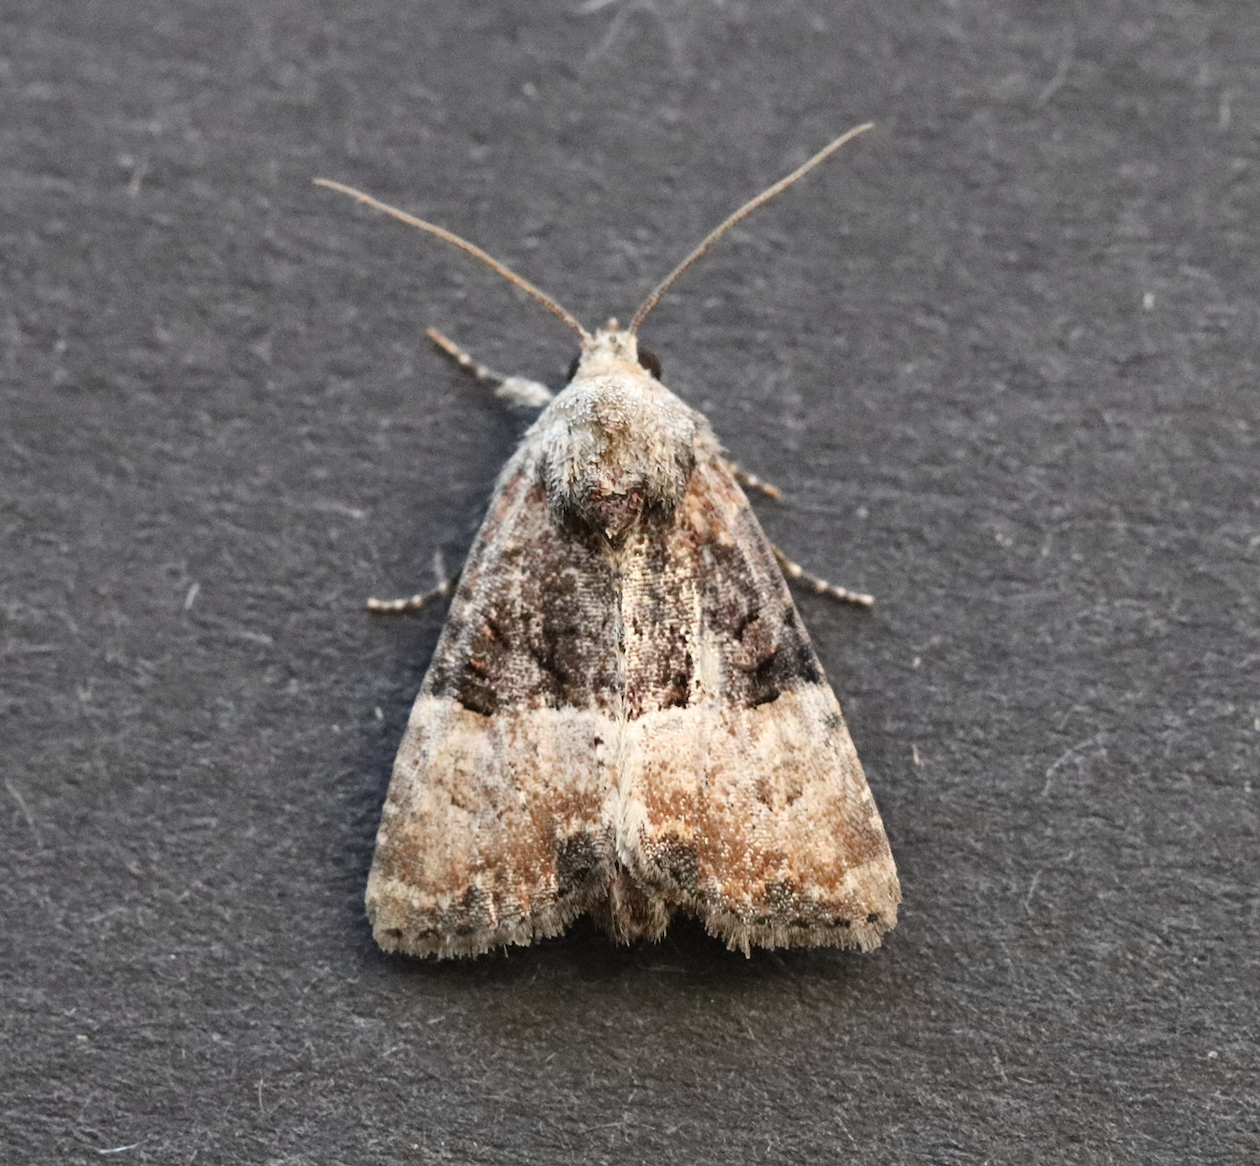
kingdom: Animalia
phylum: Arthropoda
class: Insecta
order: Lepidoptera
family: Noctuidae
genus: Mesoligia
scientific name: Mesoligia furuncula
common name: Cloaked minor
